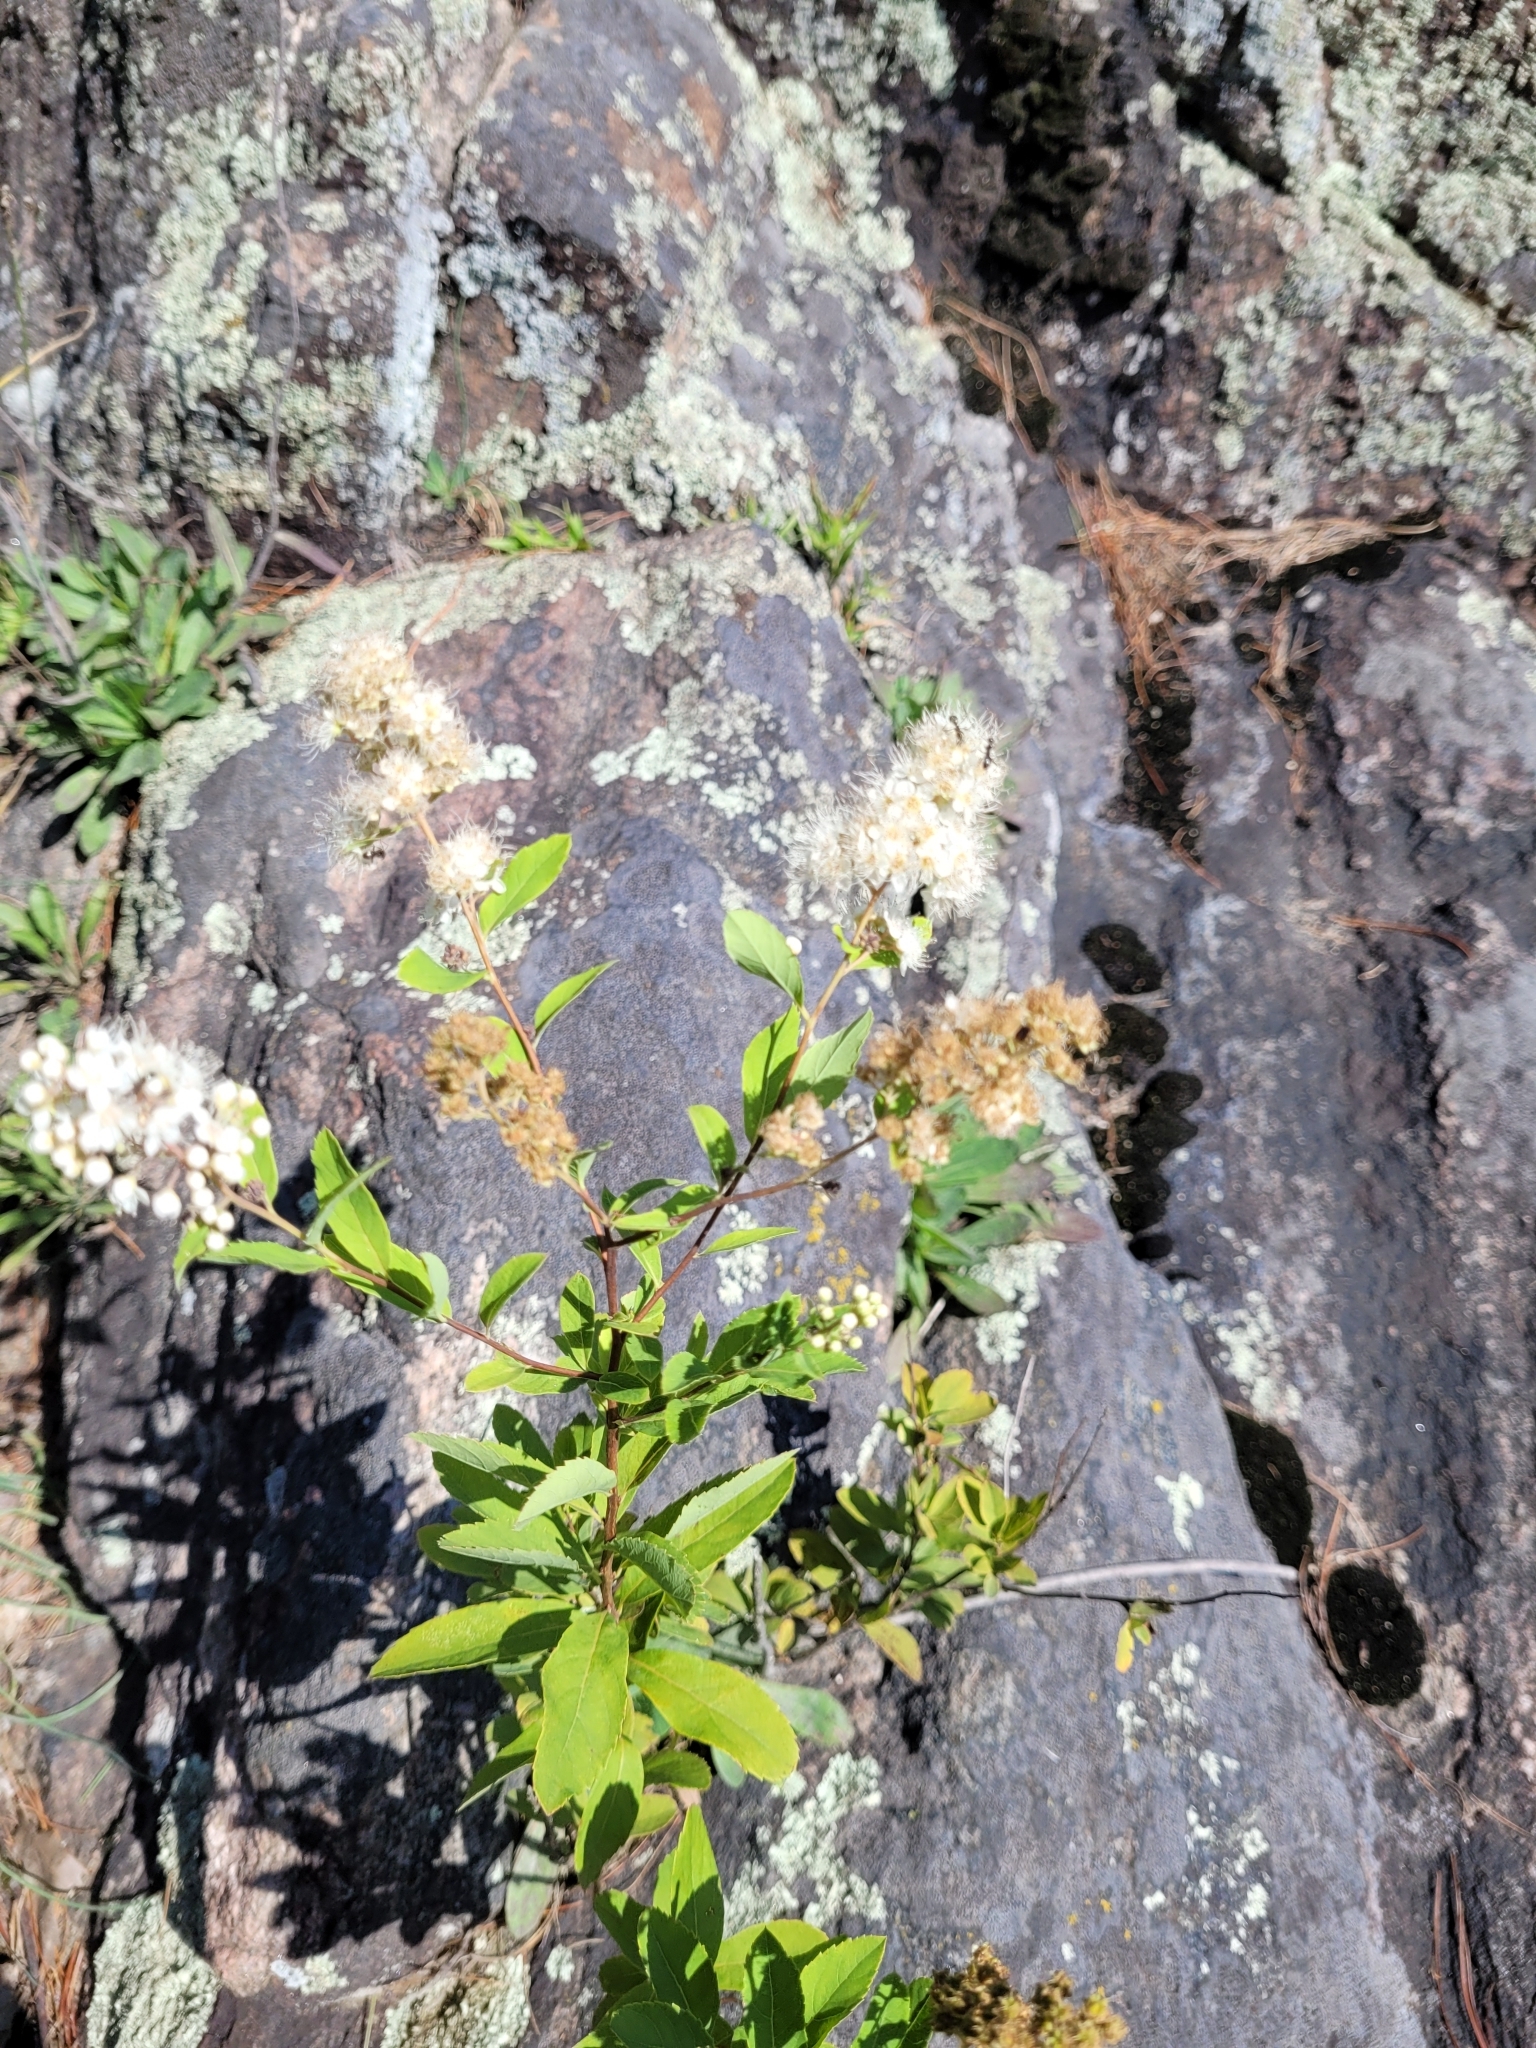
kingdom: Plantae
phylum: Tracheophyta
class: Magnoliopsida
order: Rosales
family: Rosaceae
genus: Spiraea
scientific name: Spiraea alba
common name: Pale bridewort
